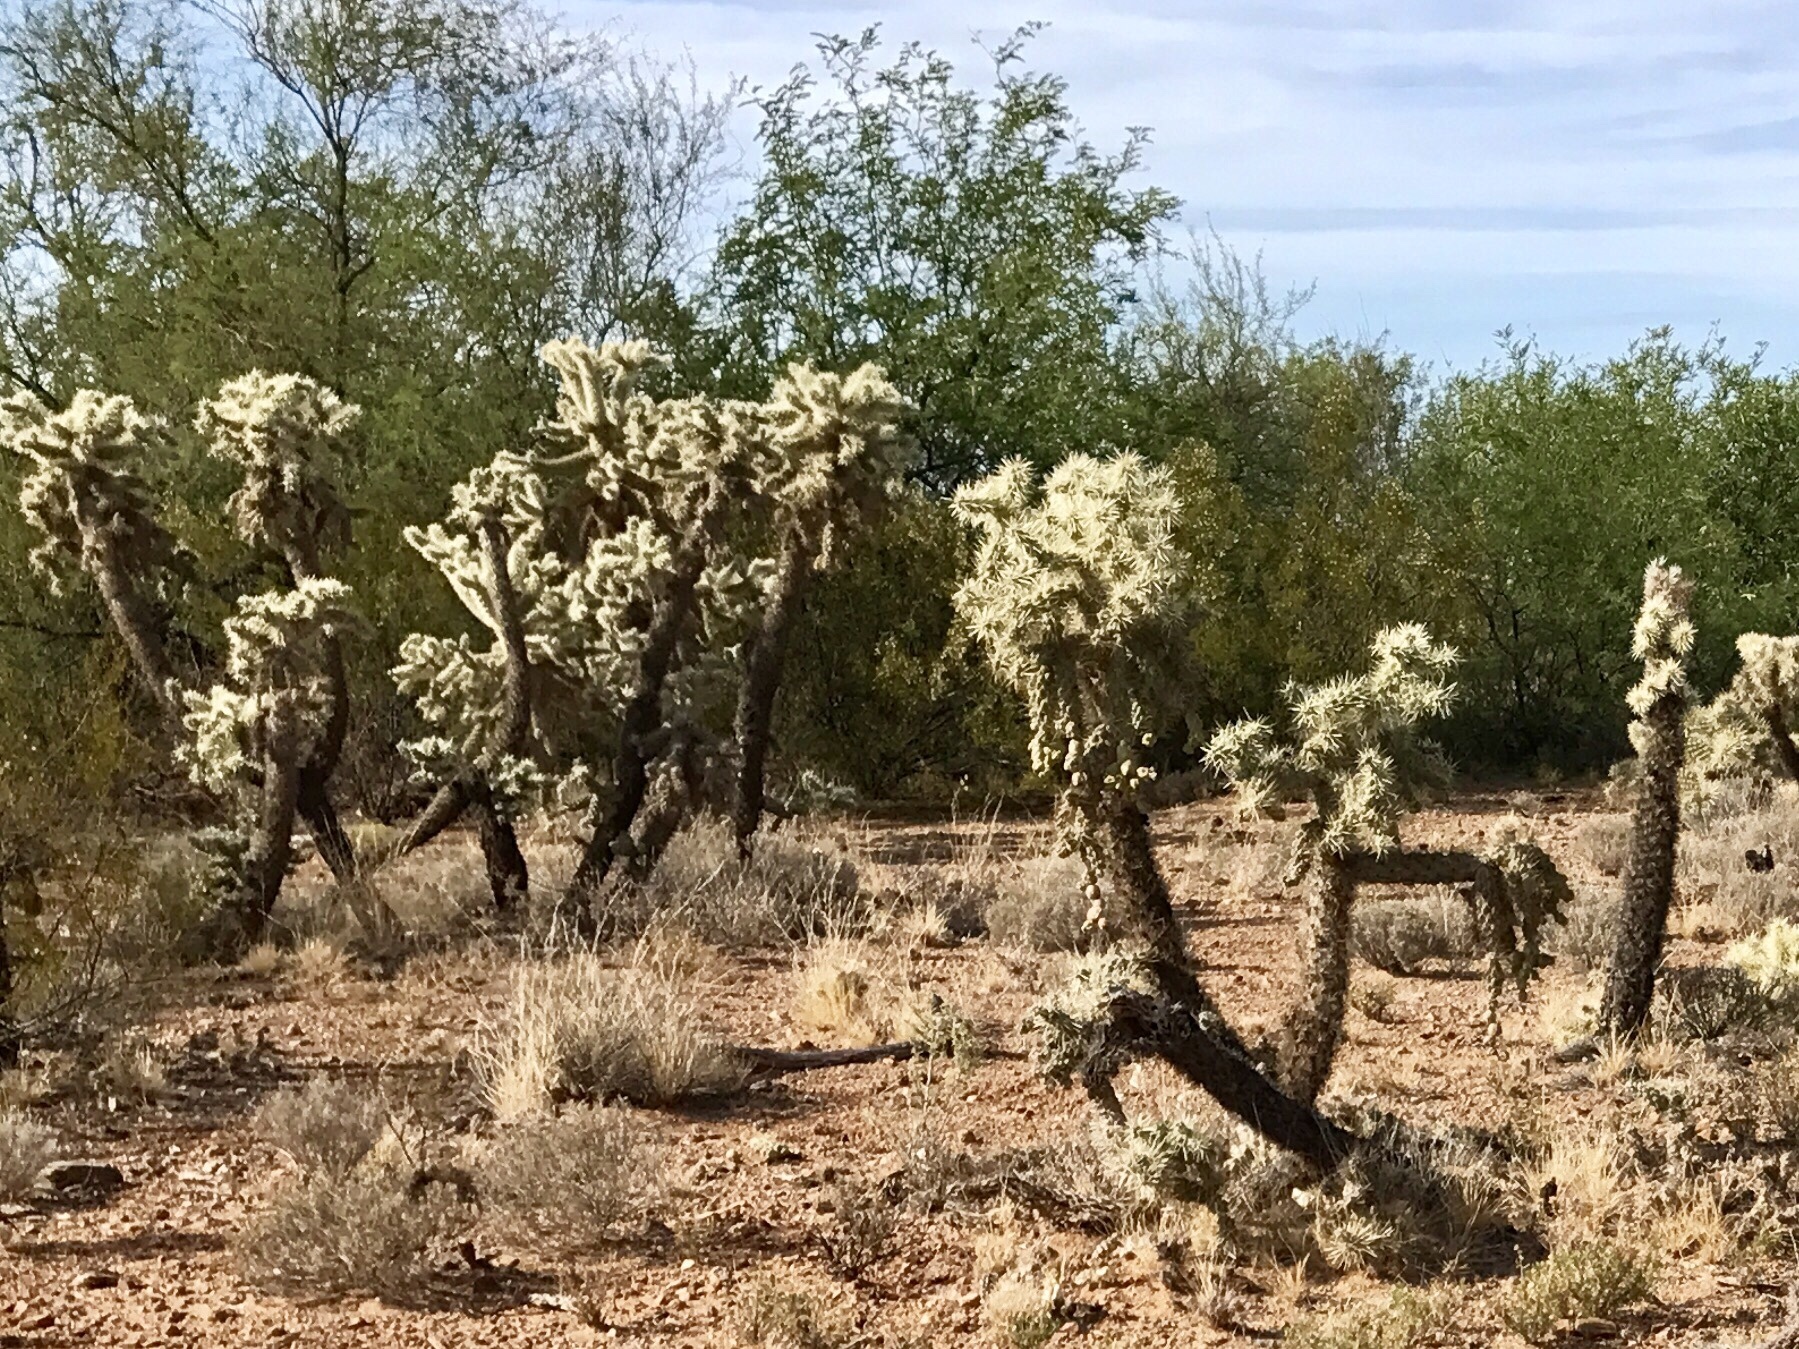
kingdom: Plantae
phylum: Tracheophyta
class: Magnoliopsida
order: Caryophyllales
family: Cactaceae
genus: Cylindropuntia
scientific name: Cylindropuntia fulgida
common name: Jumping cholla
